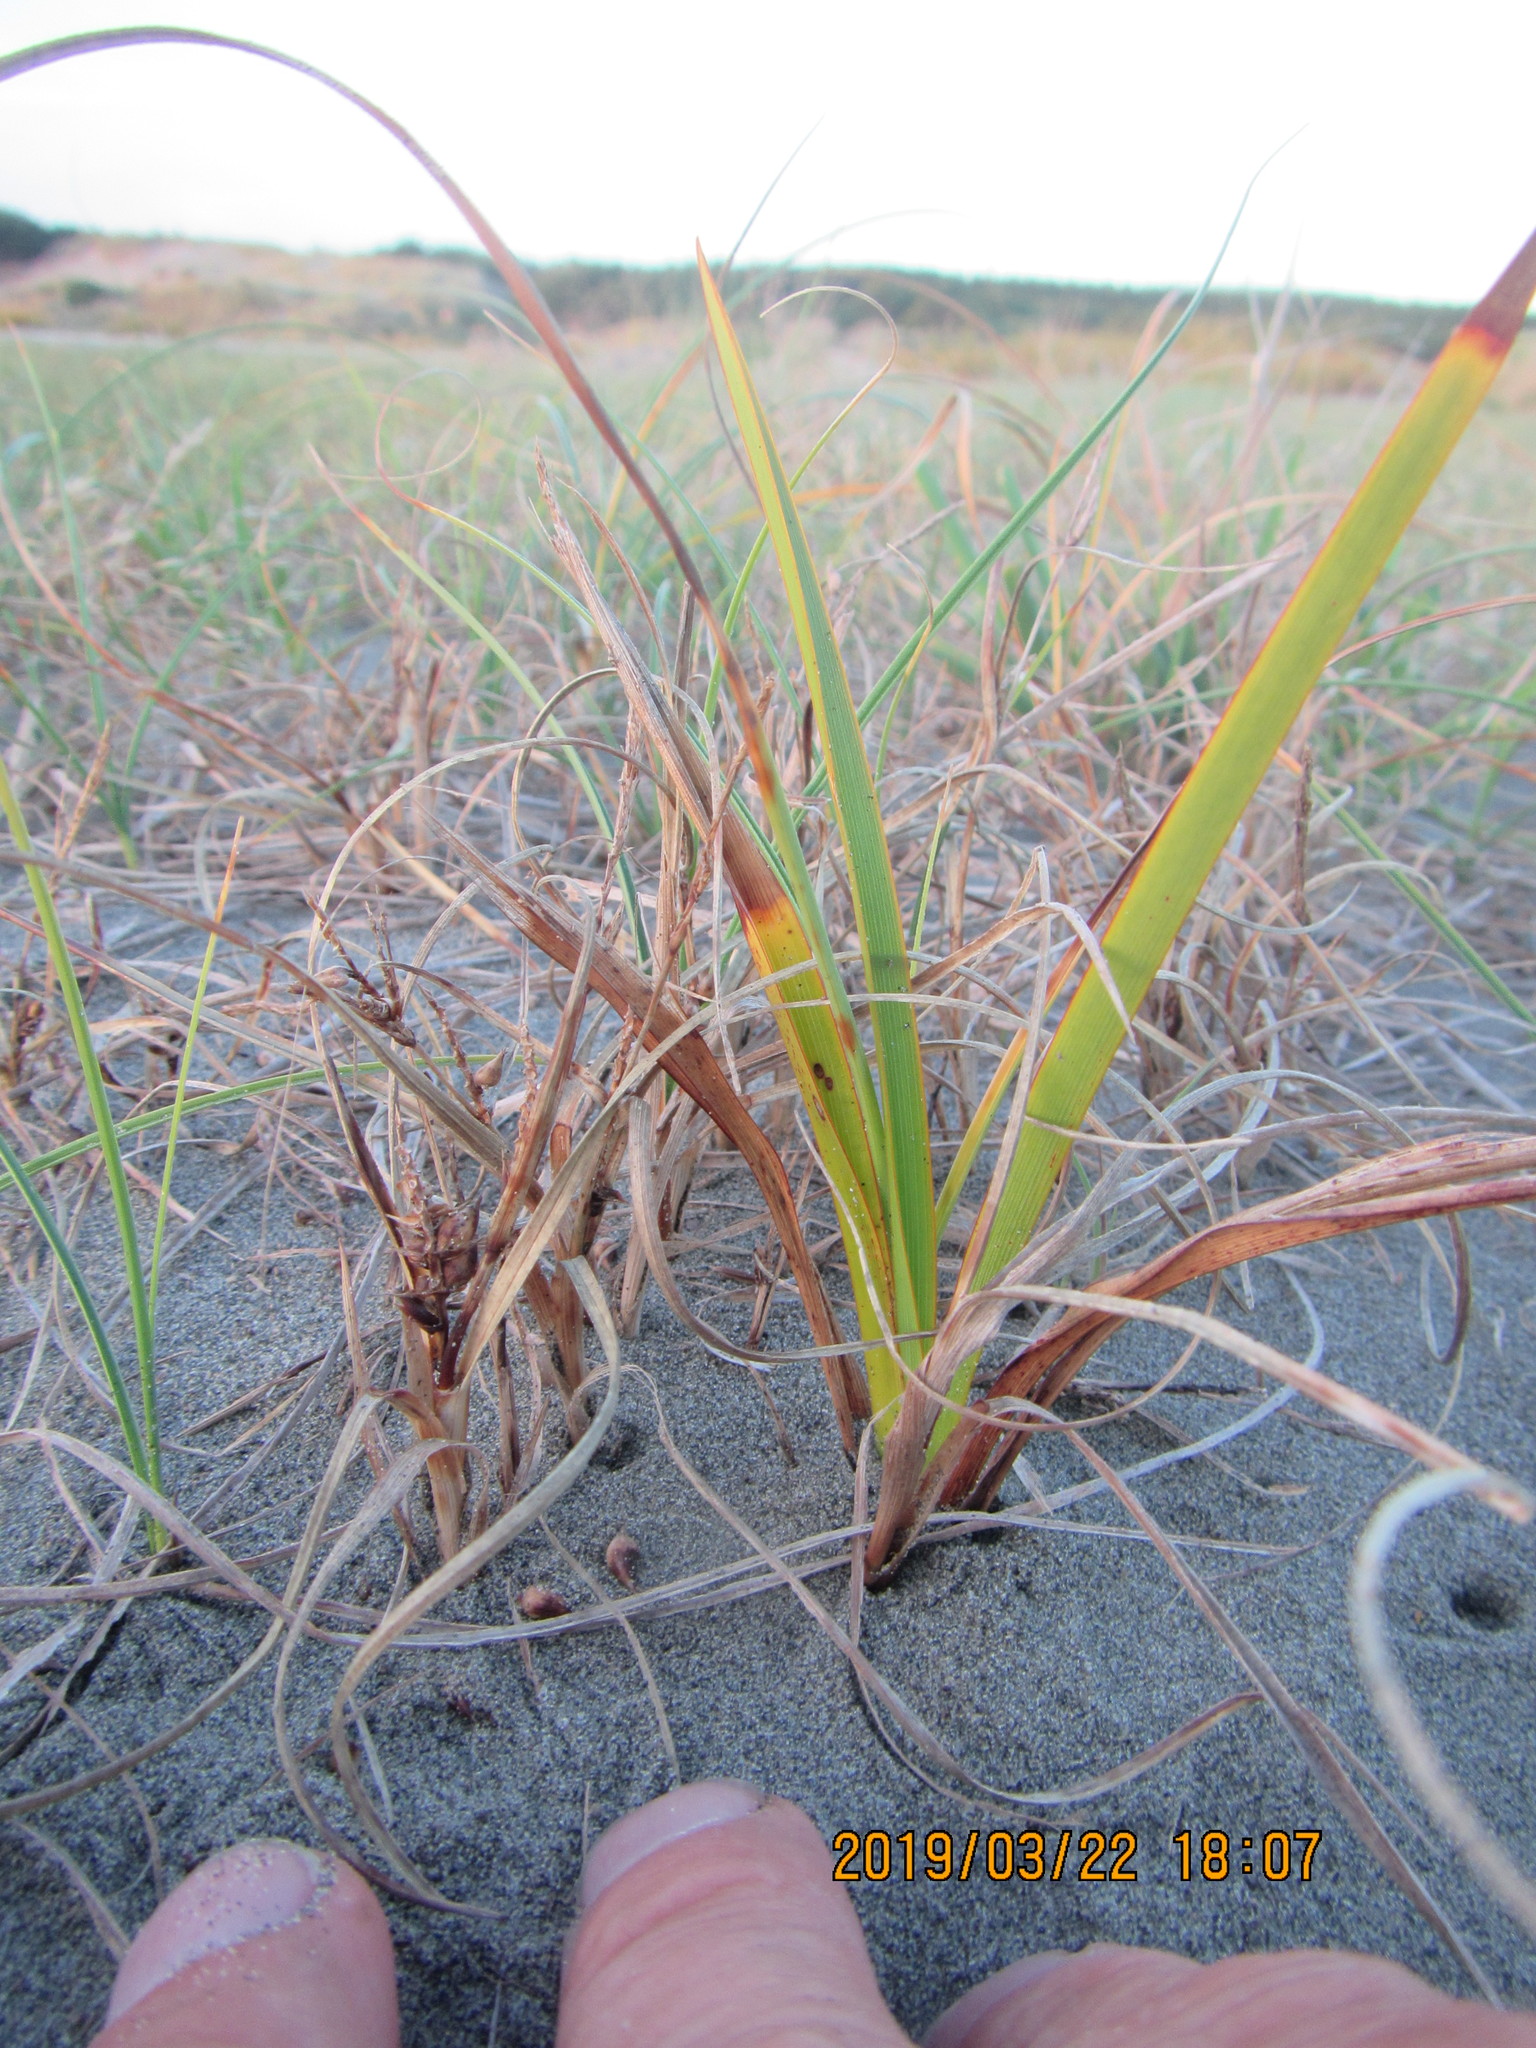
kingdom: Plantae
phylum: Tracheophyta
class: Liliopsida
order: Asparagales
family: Asphodelaceae
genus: Phormium
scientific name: Phormium tenax
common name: New zealand flax
